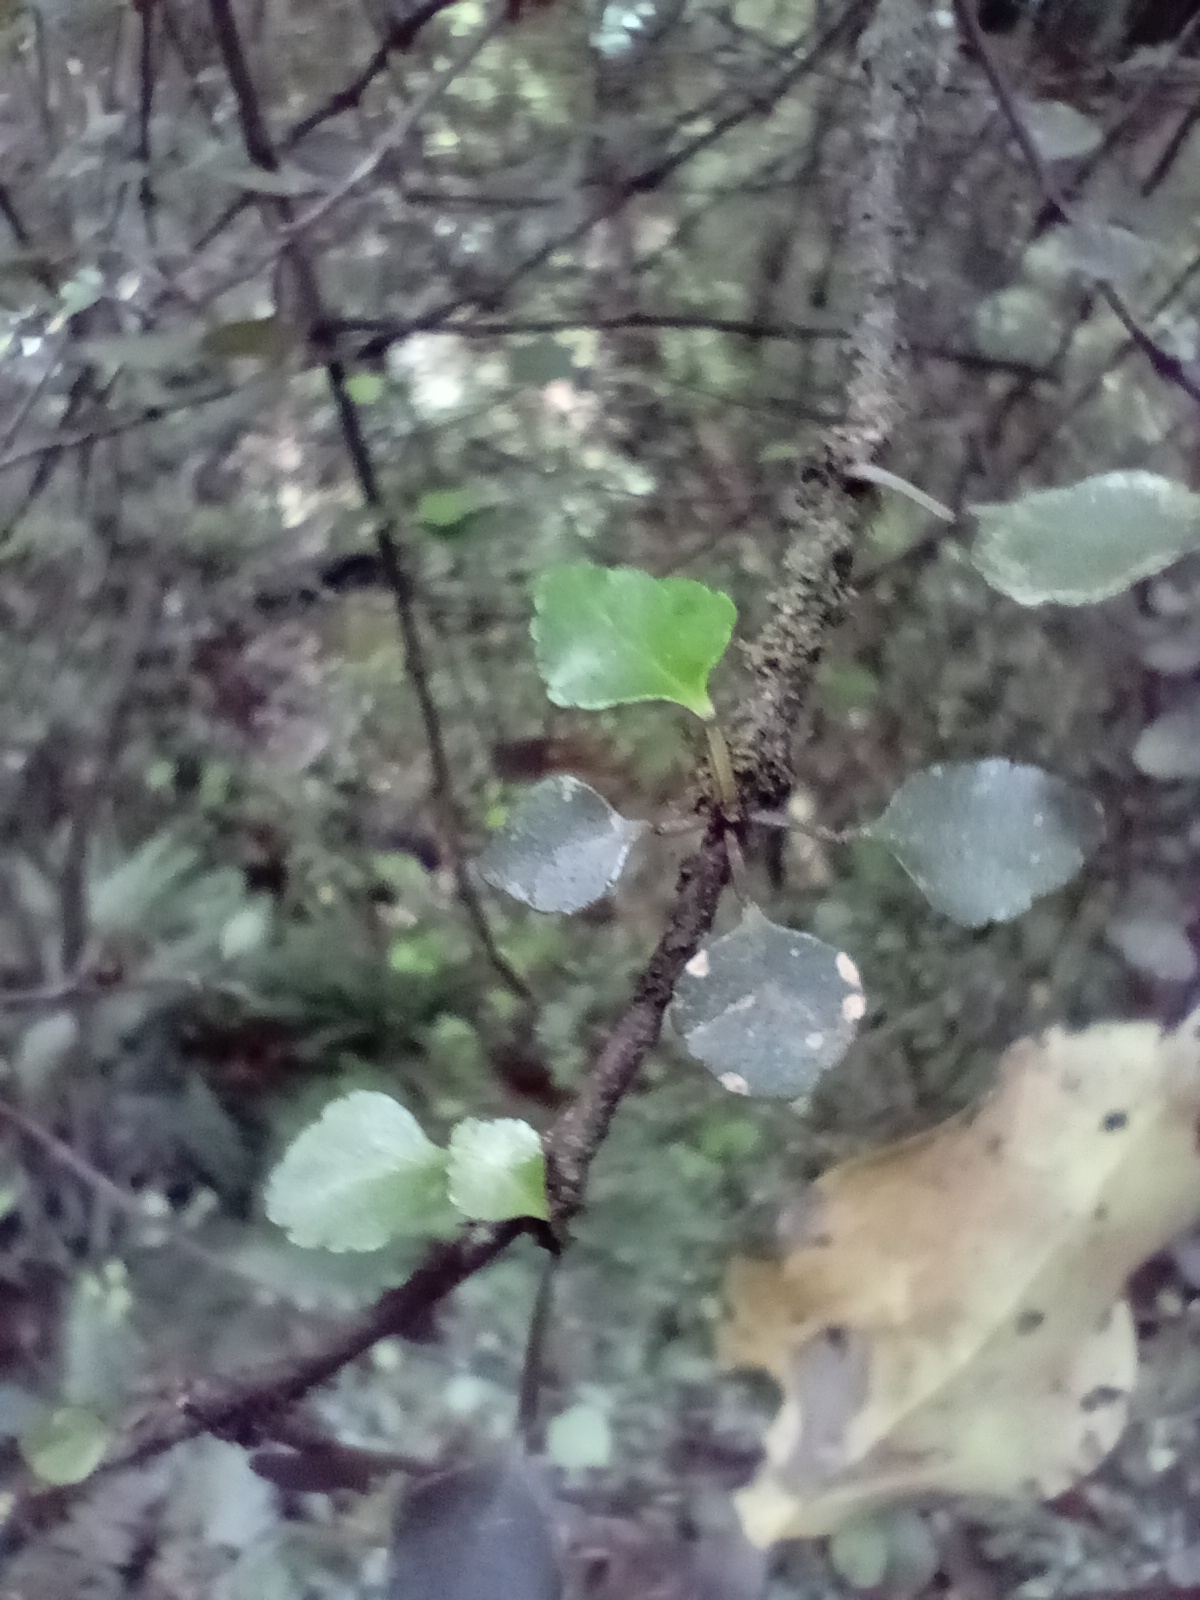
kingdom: Plantae
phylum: Tracheophyta
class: Magnoliopsida
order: Sapindales
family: Rutaceae
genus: Melicope
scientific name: Melicope simplex
